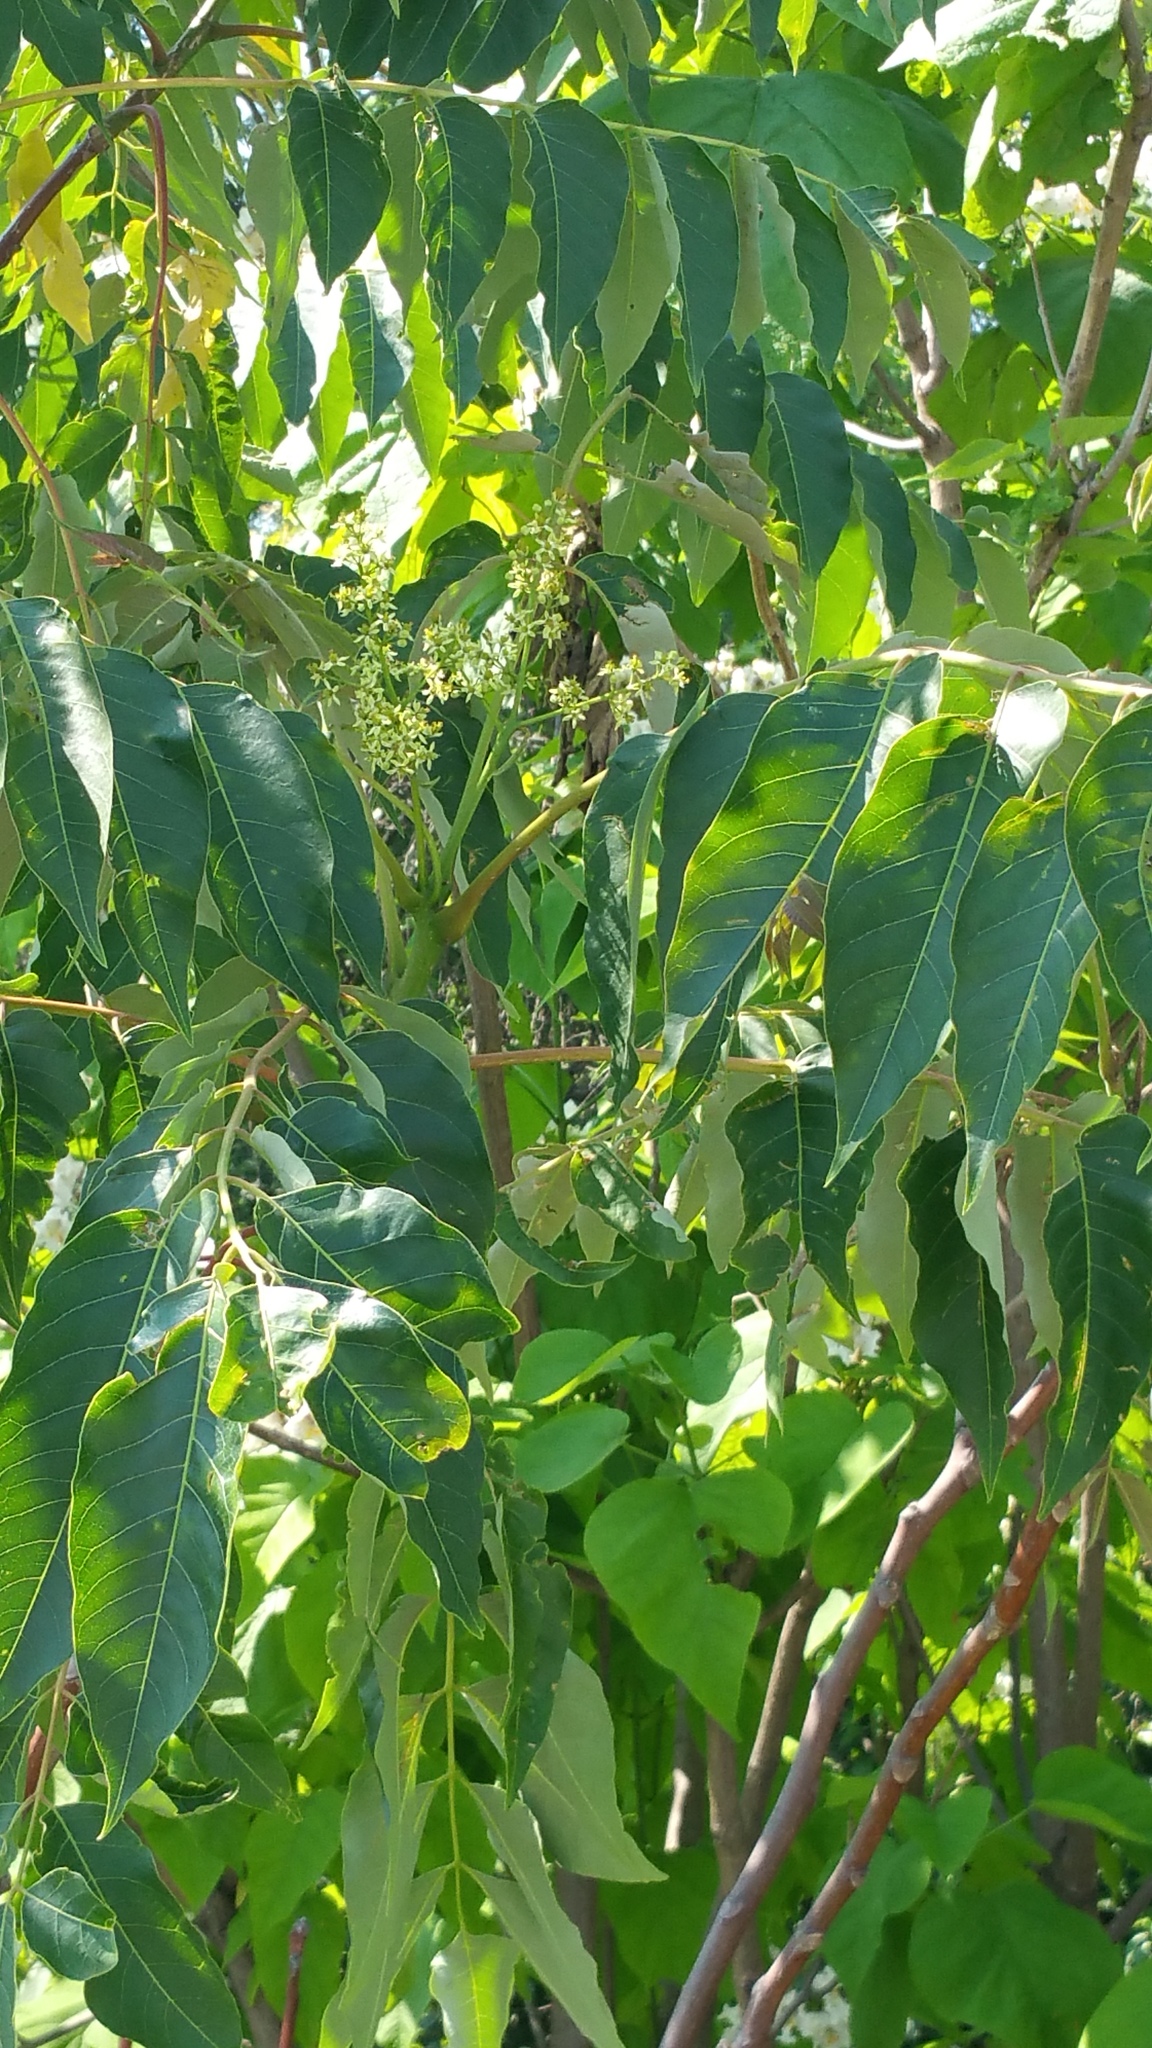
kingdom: Plantae
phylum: Tracheophyta
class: Magnoliopsida
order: Sapindales
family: Simaroubaceae
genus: Ailanthus
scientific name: Ailanthus altissima
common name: Tree-of-heaven
